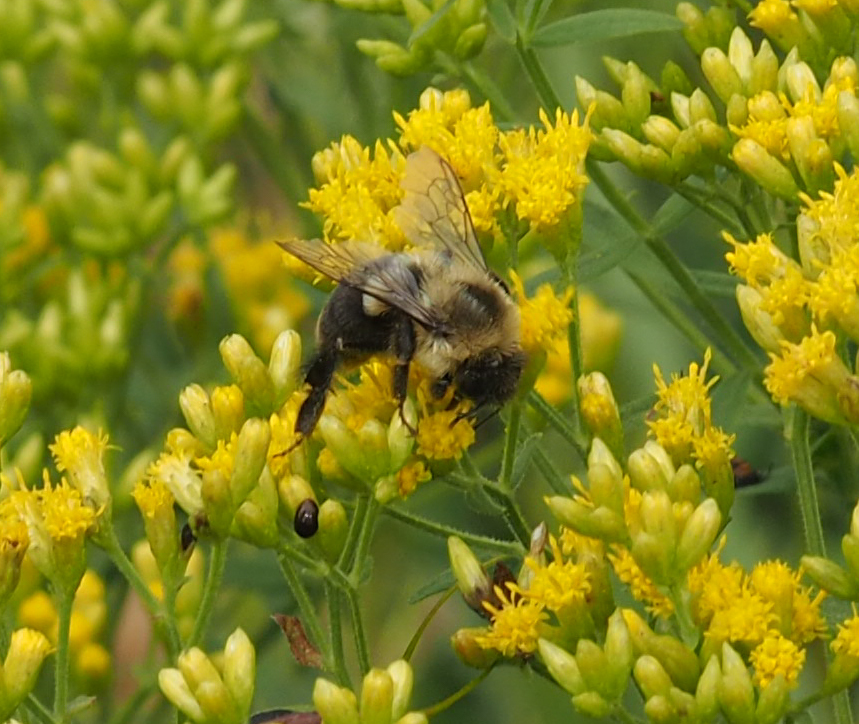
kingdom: Animalia
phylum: Arthropoda
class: Insecta
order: Hymenoptera
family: Apidae
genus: Bombus
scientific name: Bombus impatiens
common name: Common eastern bumble bee
